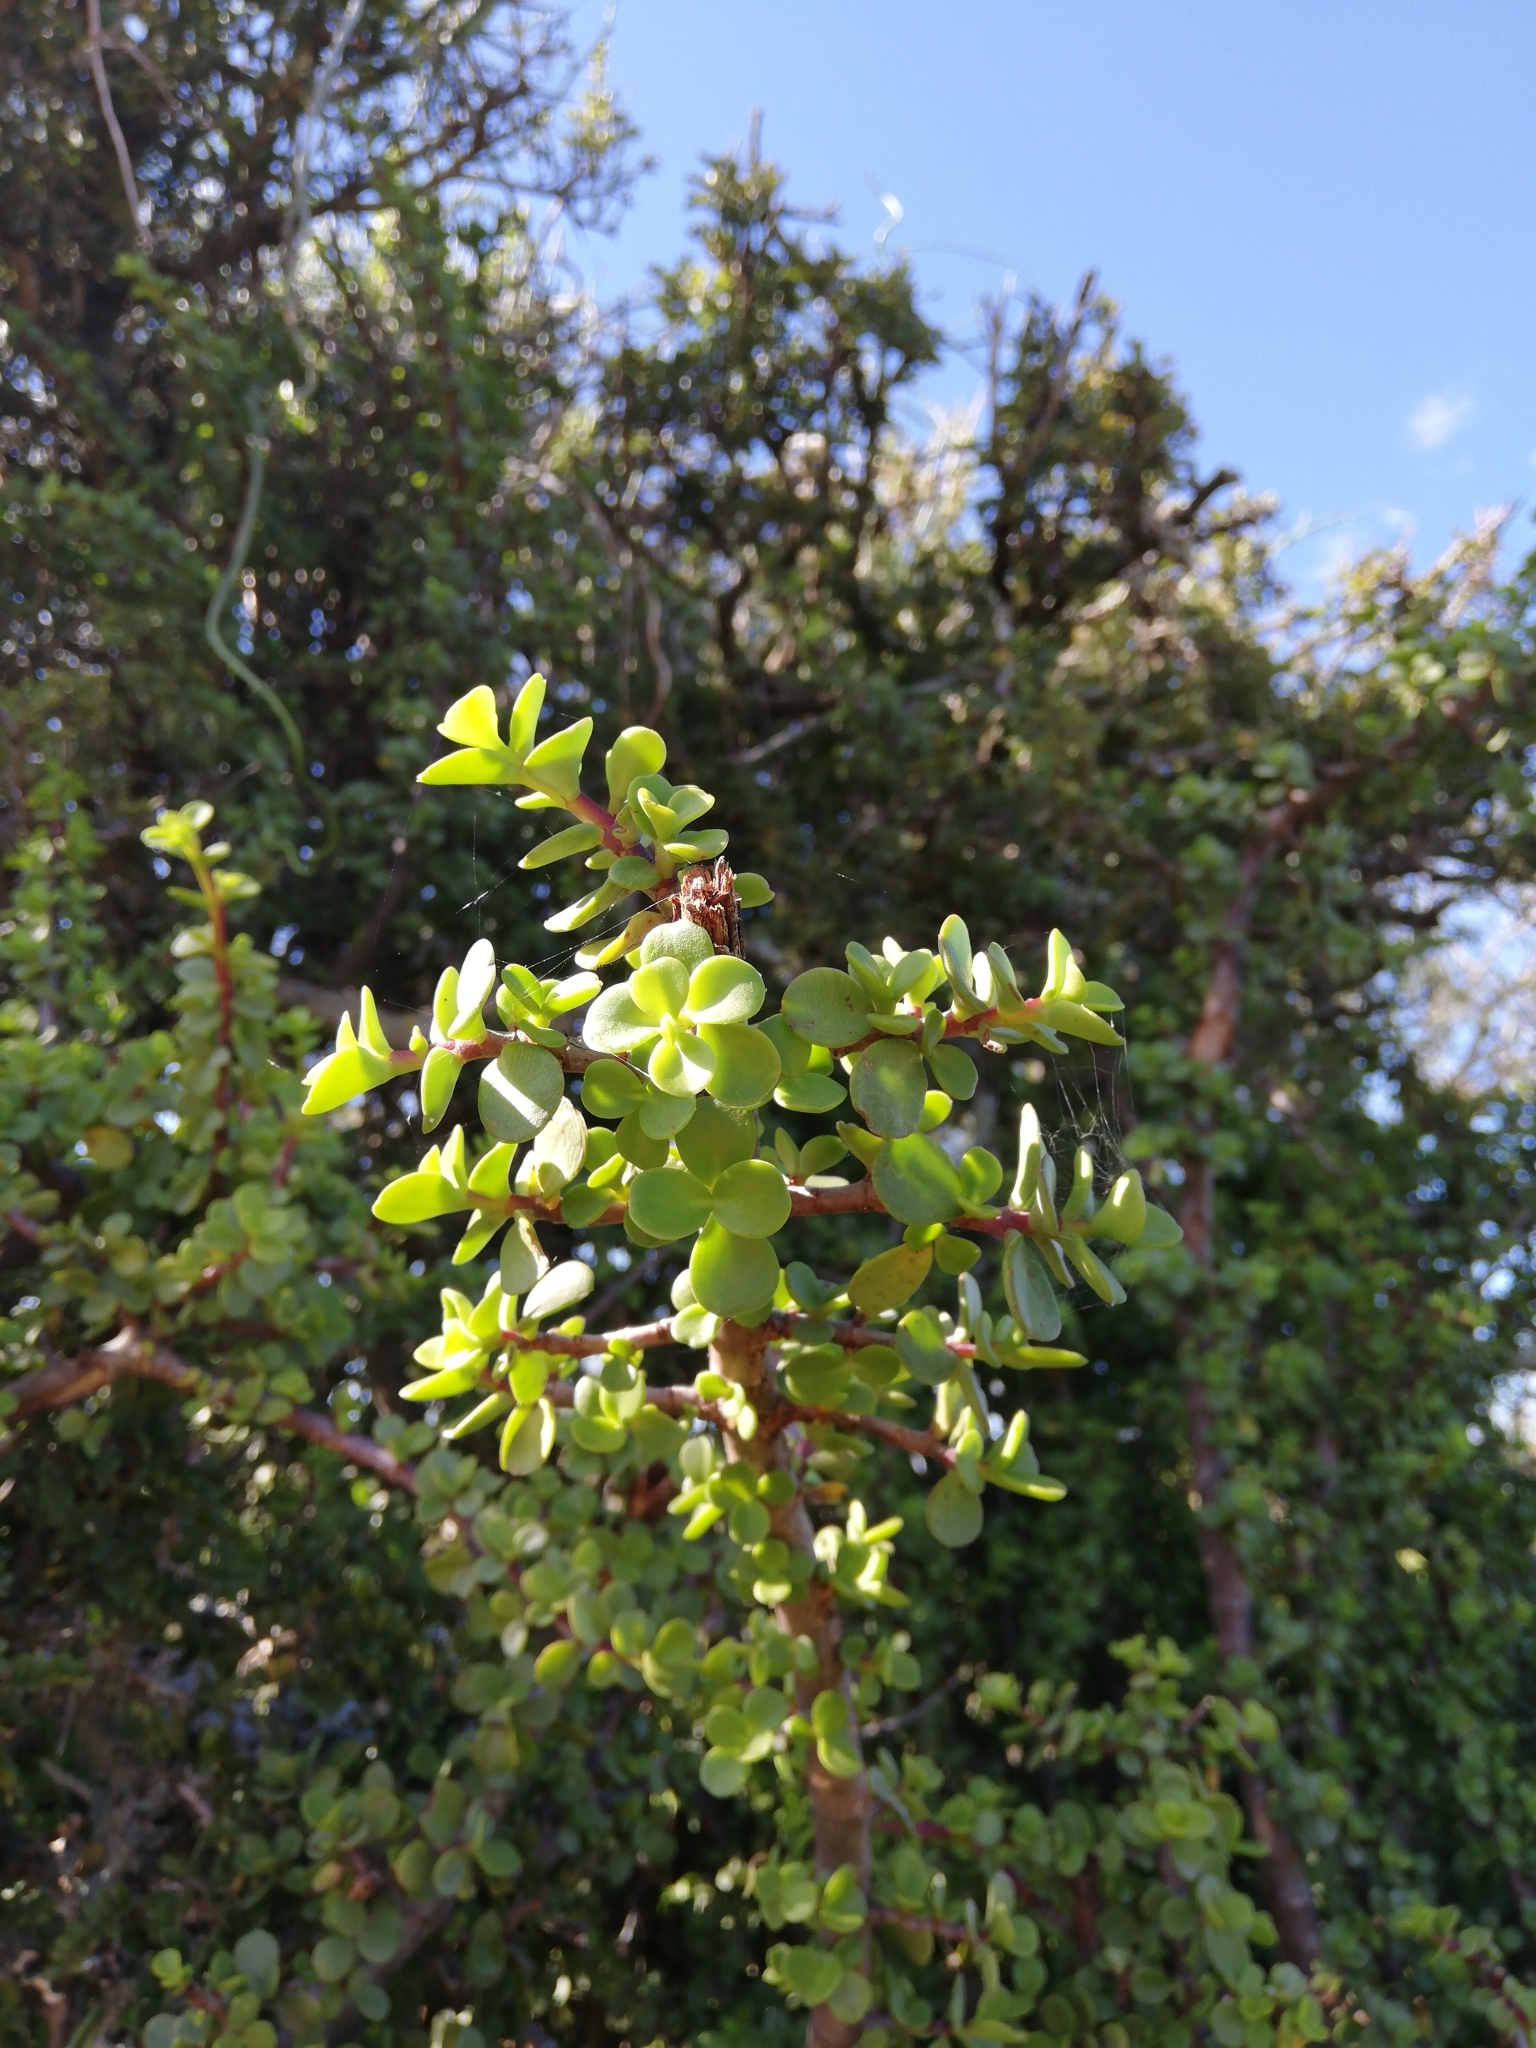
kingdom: Plantae
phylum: Tracheophyta
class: Magnoliopsida
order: Caryophyllales
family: Didiereaceae
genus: Portulacaria
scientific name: Portulacaria afra
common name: Elephant-bush
